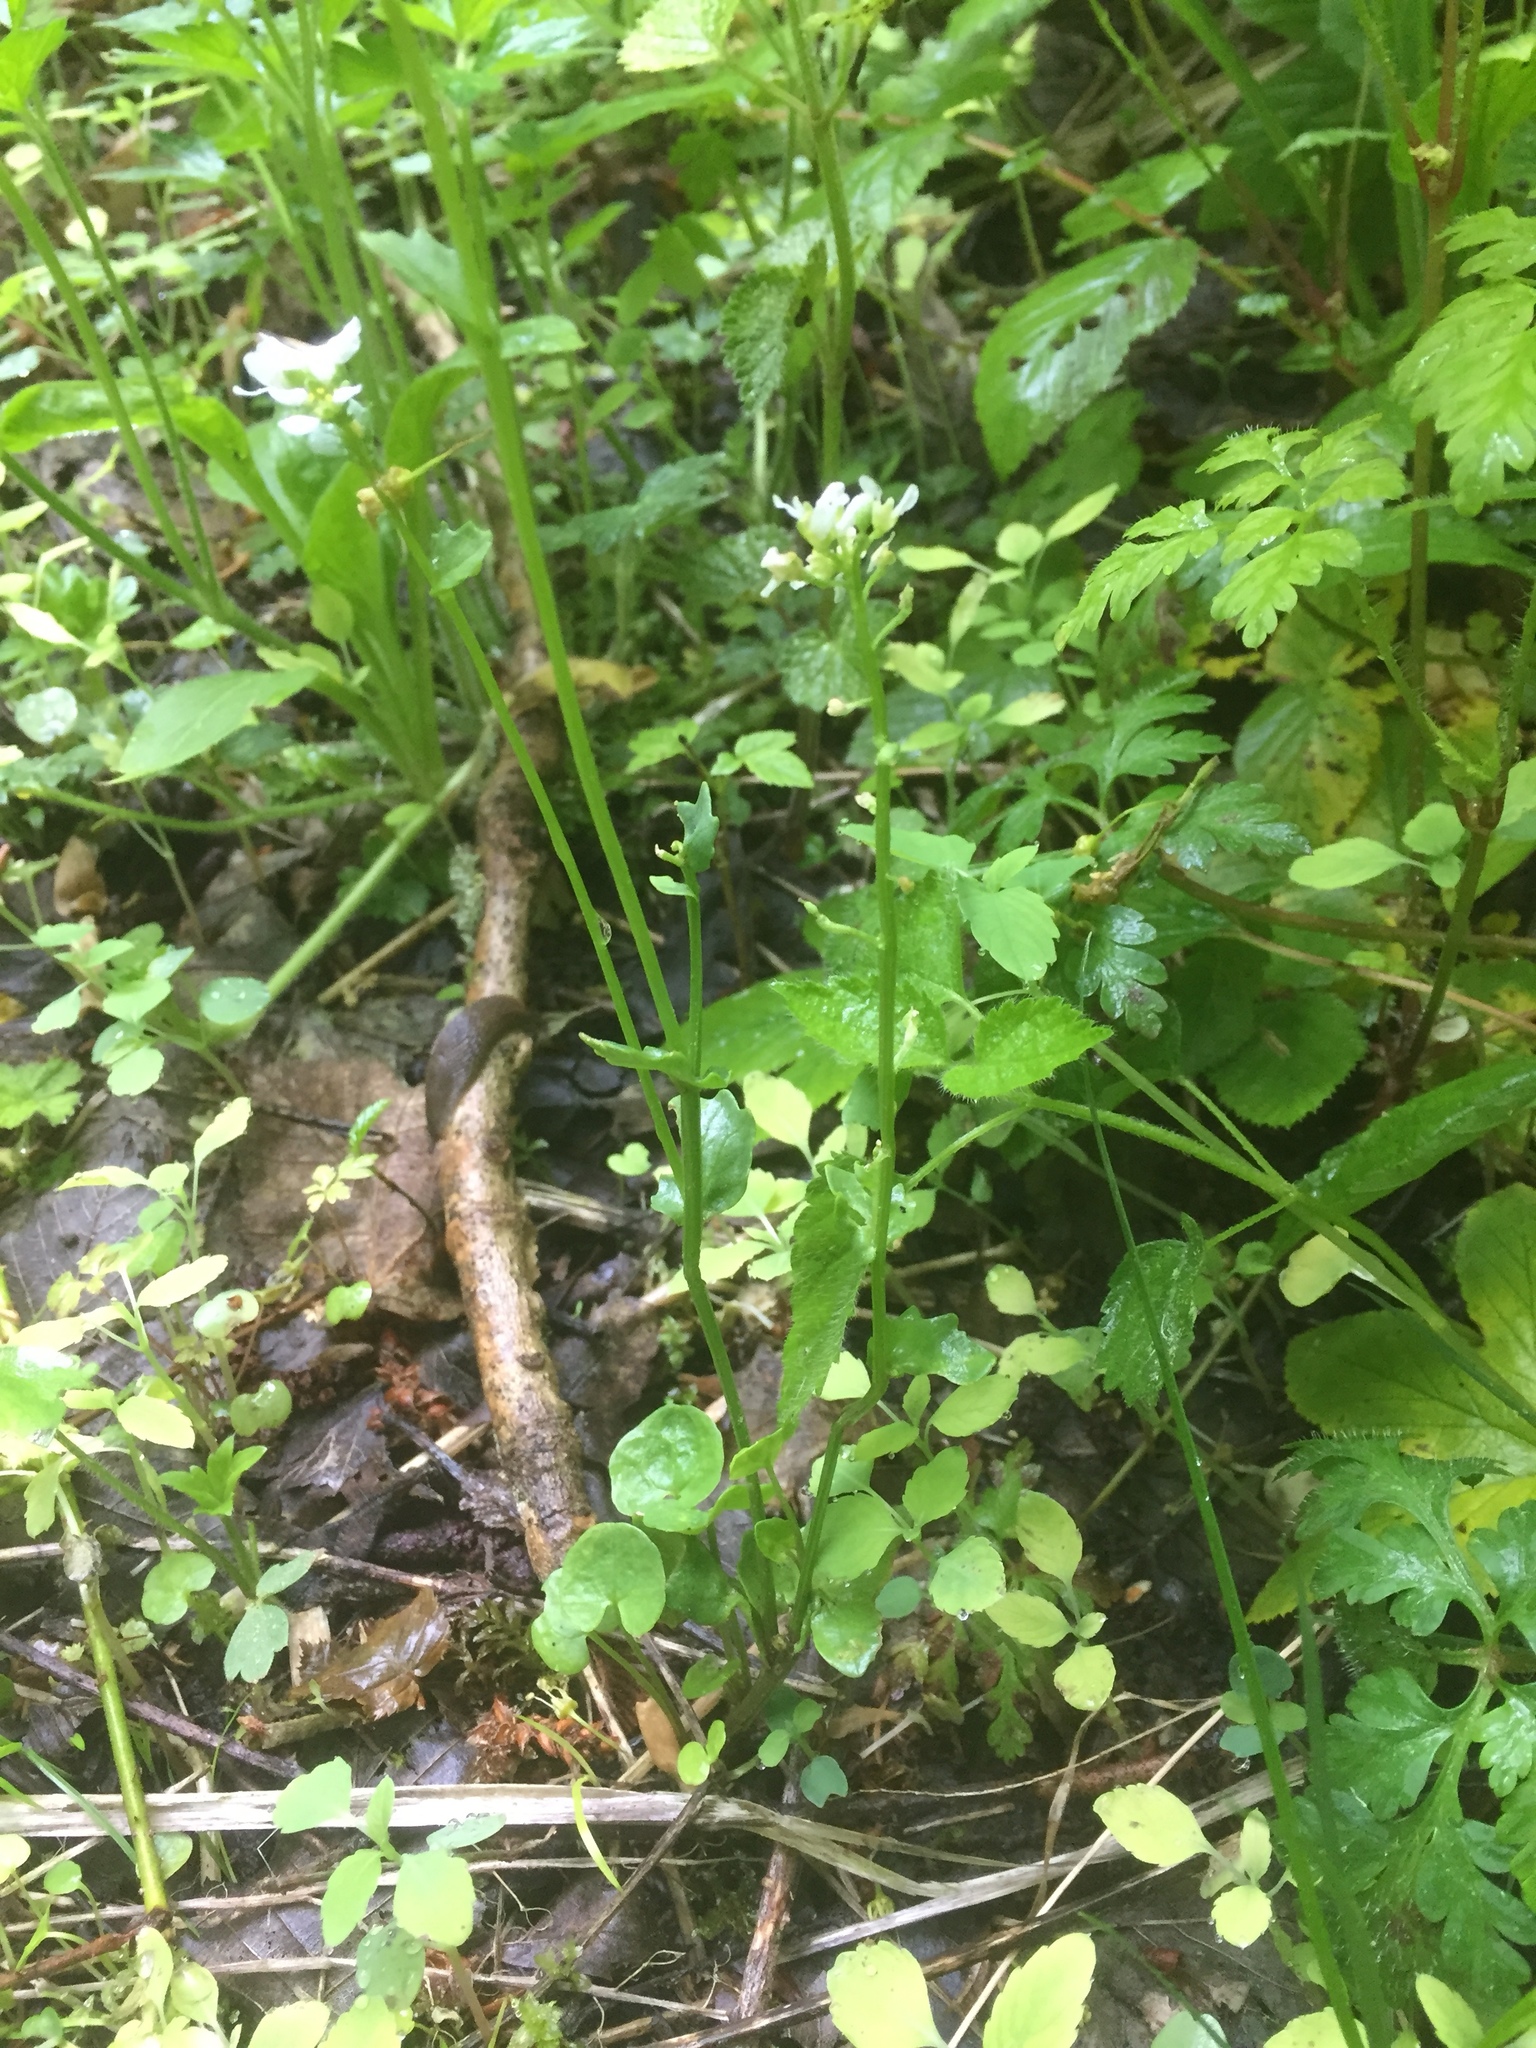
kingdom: Plantae
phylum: Tracheophyta
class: Magnoliopsida
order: Brassicales
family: Brassicaceae
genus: Cochlearia
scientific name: Cochlearia pyrenaica
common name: Upland scurvy-grass
